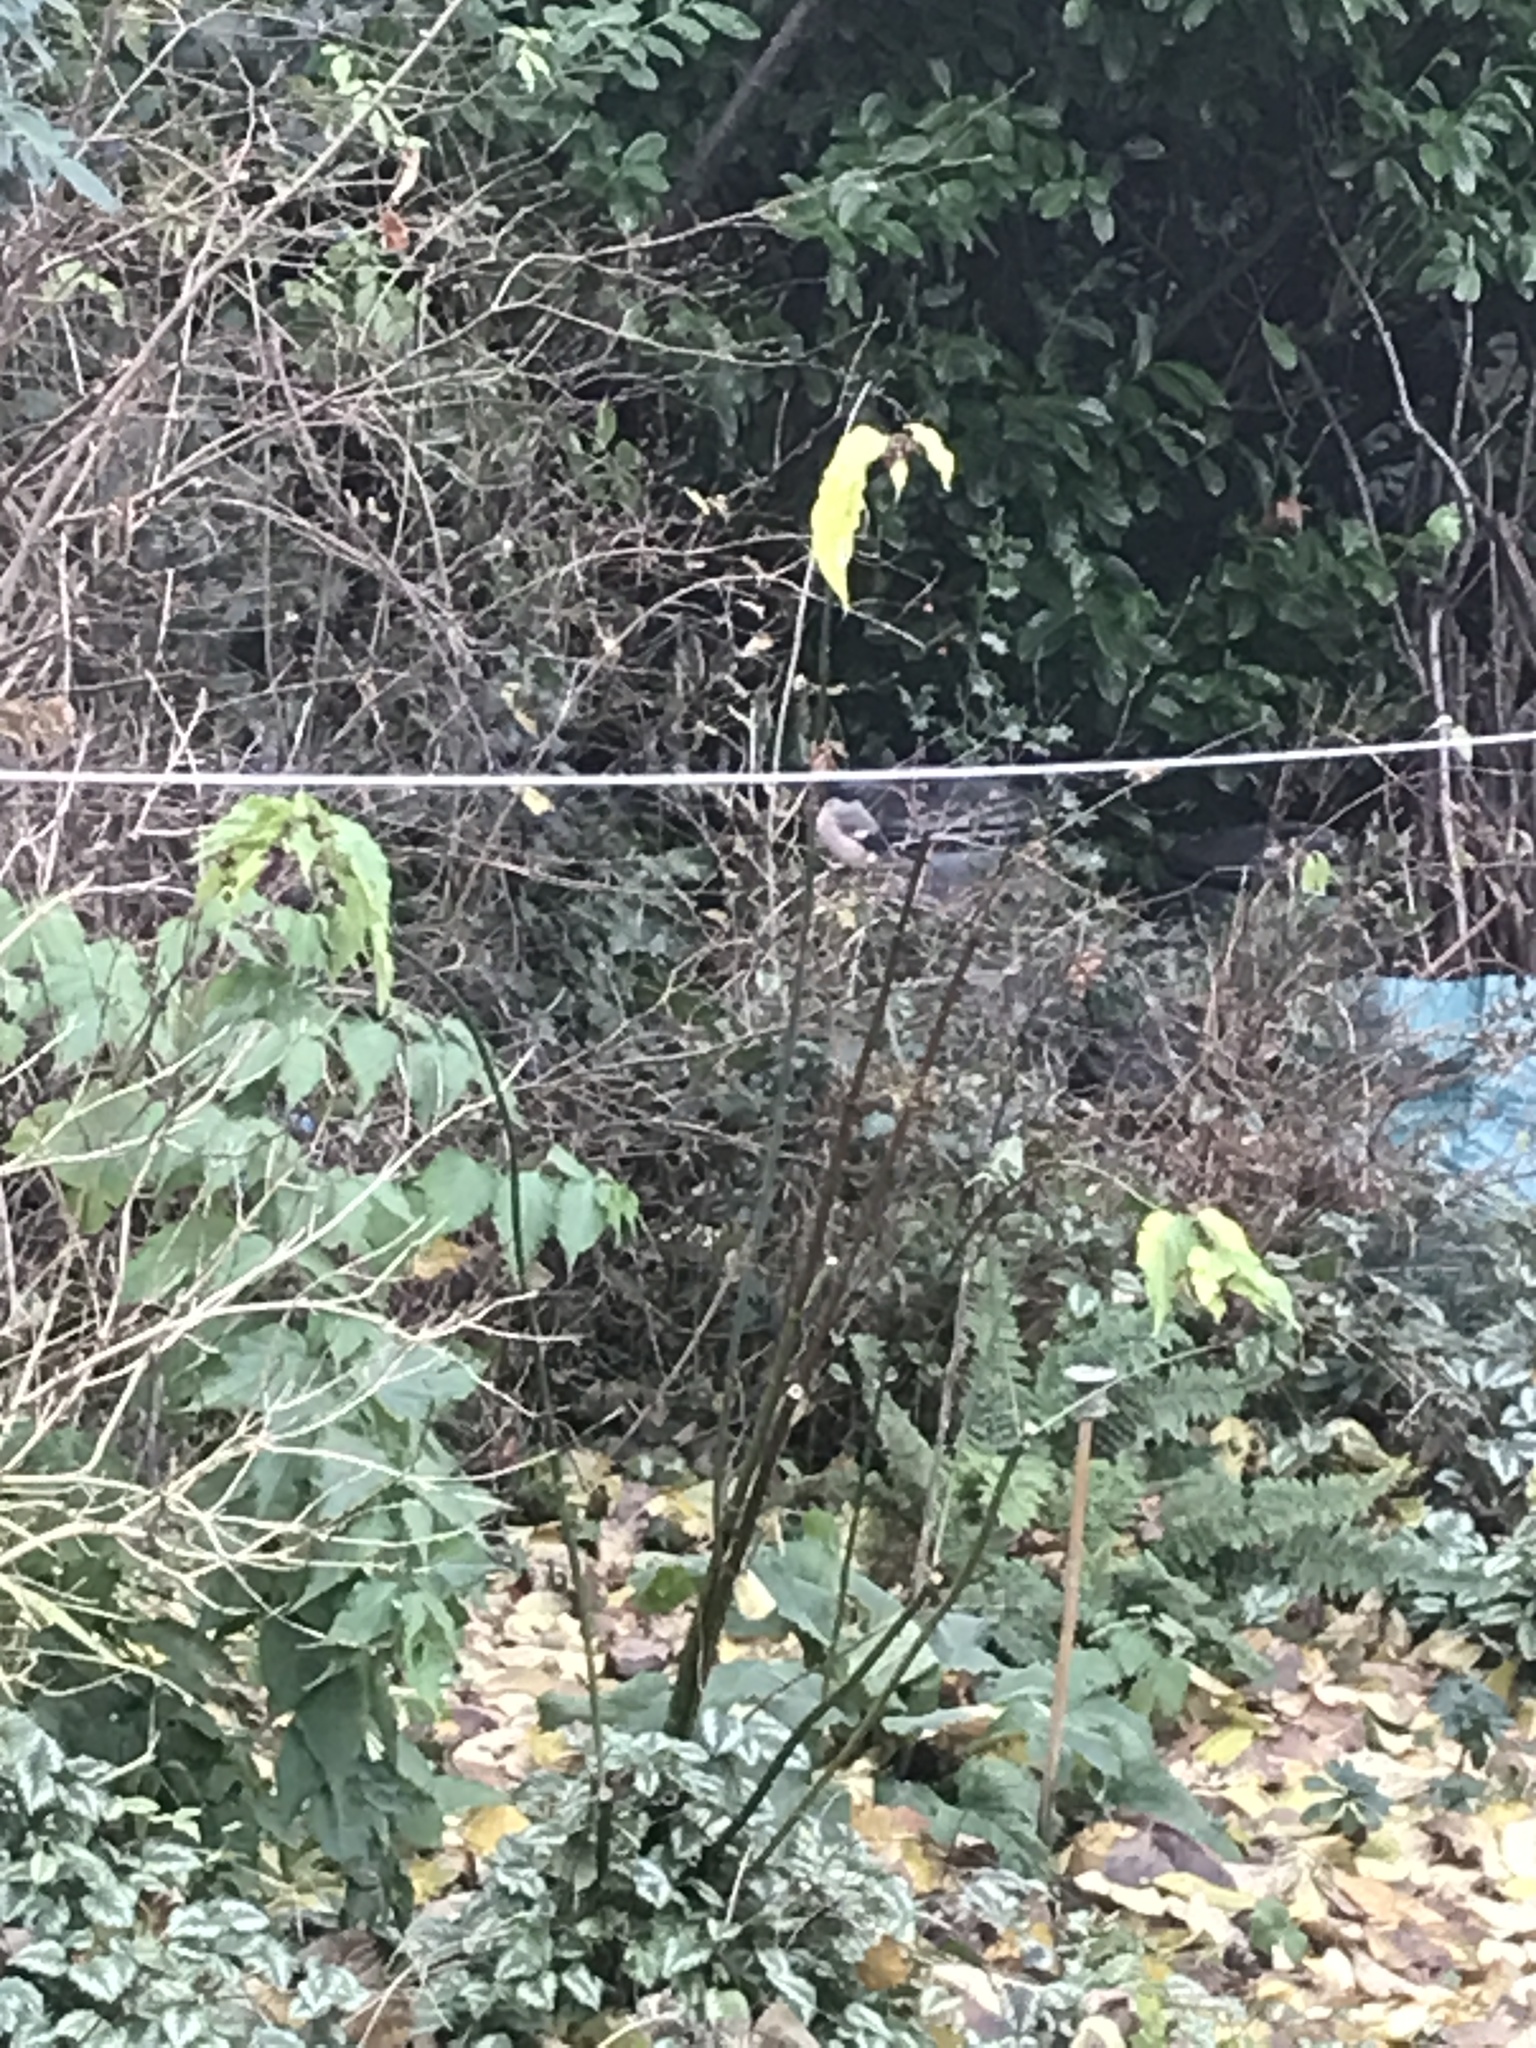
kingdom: Animalia
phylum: Chordata
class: Aves
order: Passeriformes
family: Fringillidae
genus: Pyrrhula
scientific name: Pyrrhula pyrrhula
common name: Eurasian bullfinch
